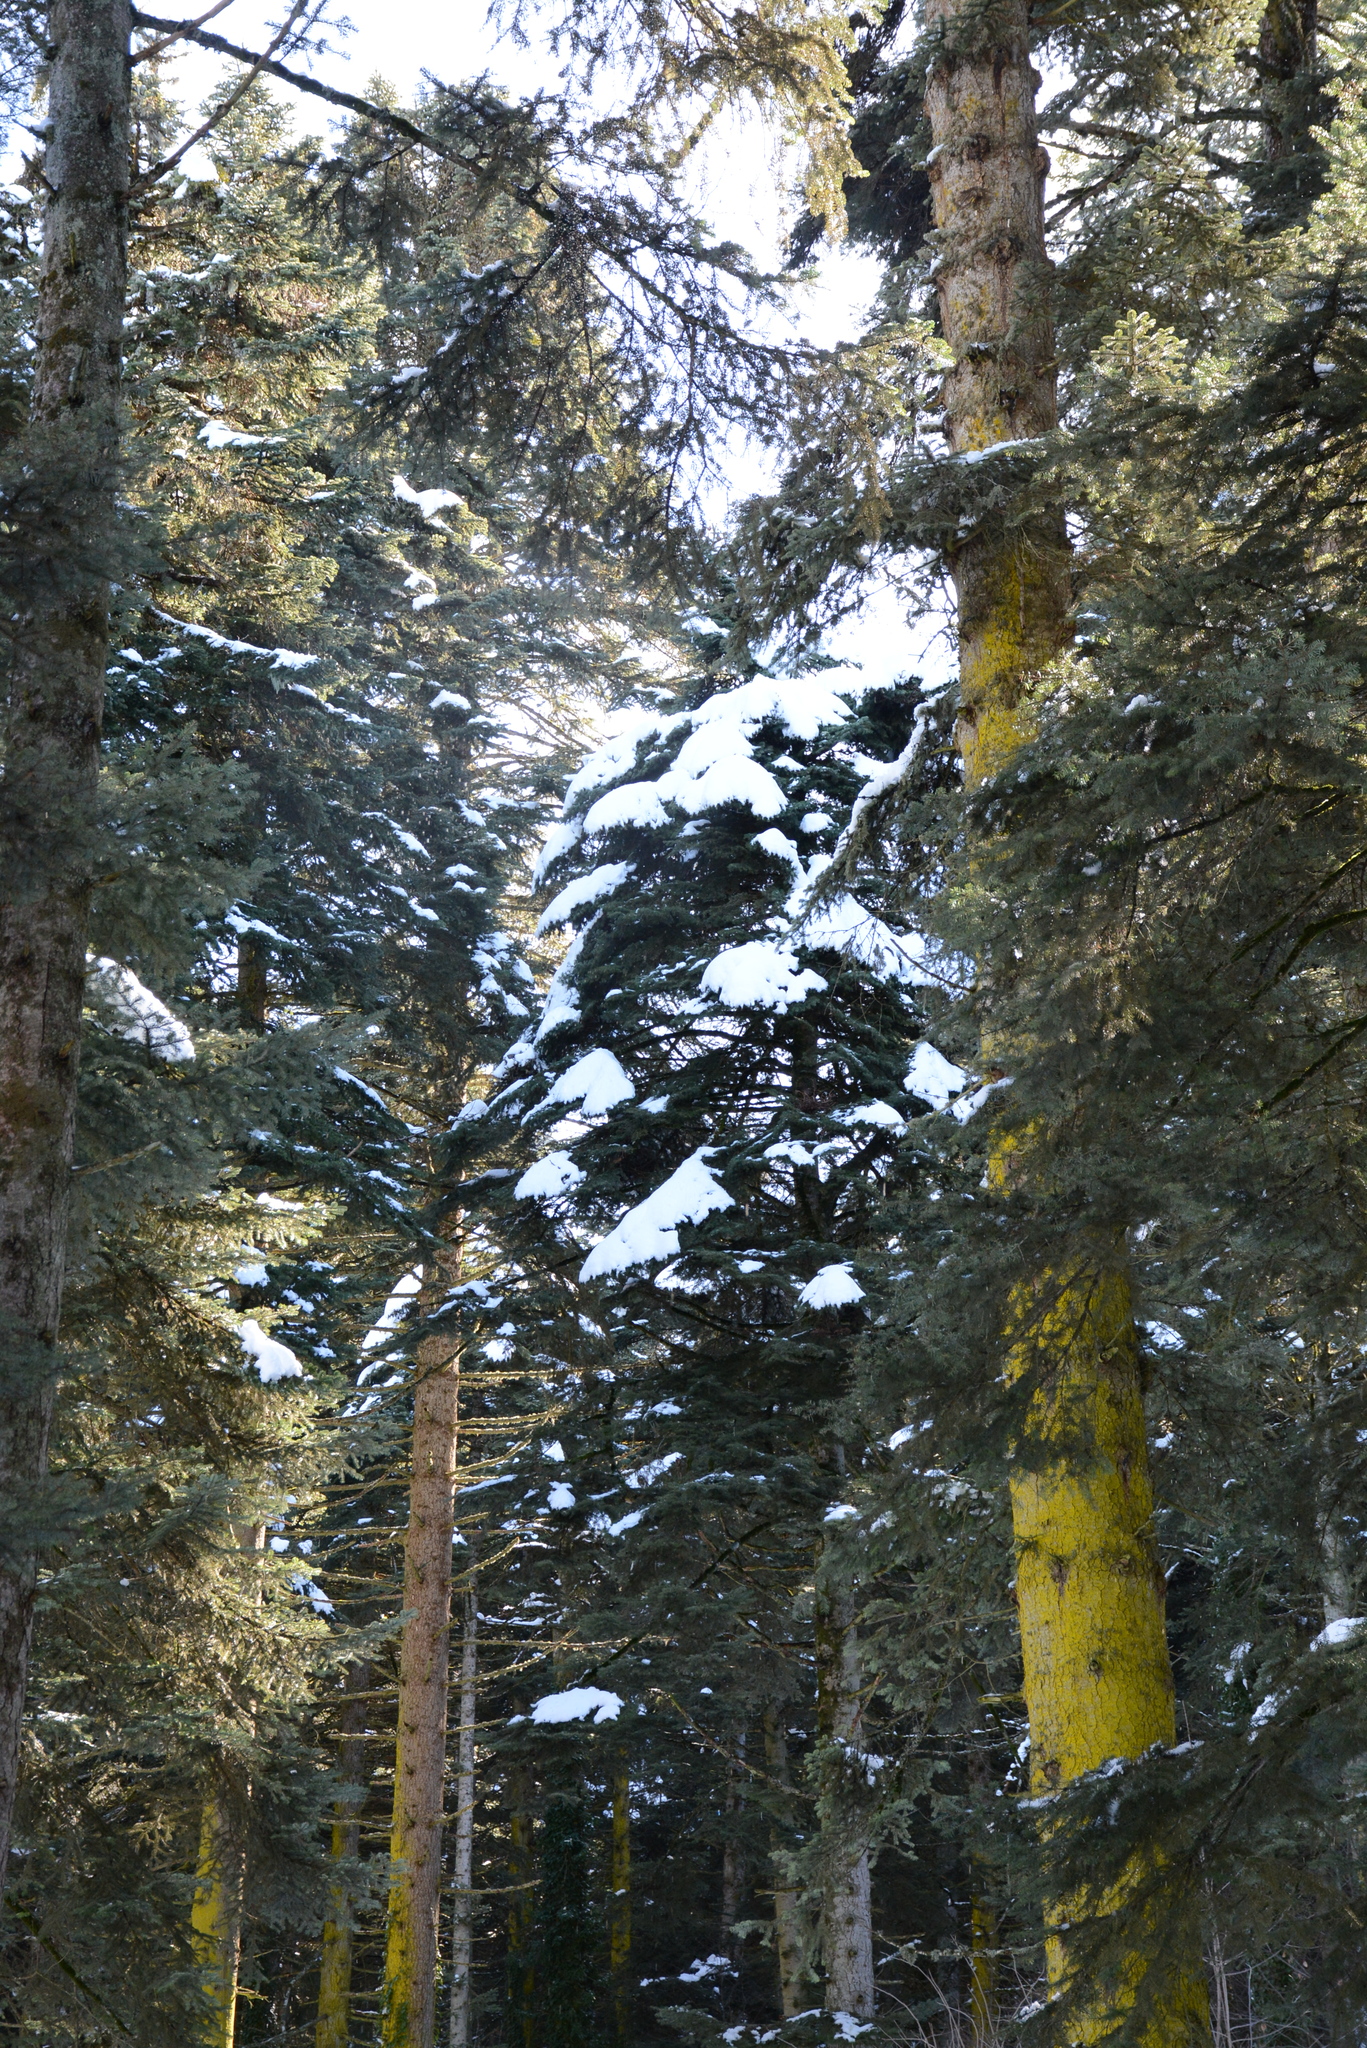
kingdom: Plantae
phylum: Tracheophyta
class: Pinopsida
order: Pinales
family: Pinaceae
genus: Abies
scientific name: Abies nordmanniana
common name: Caucasian fir
